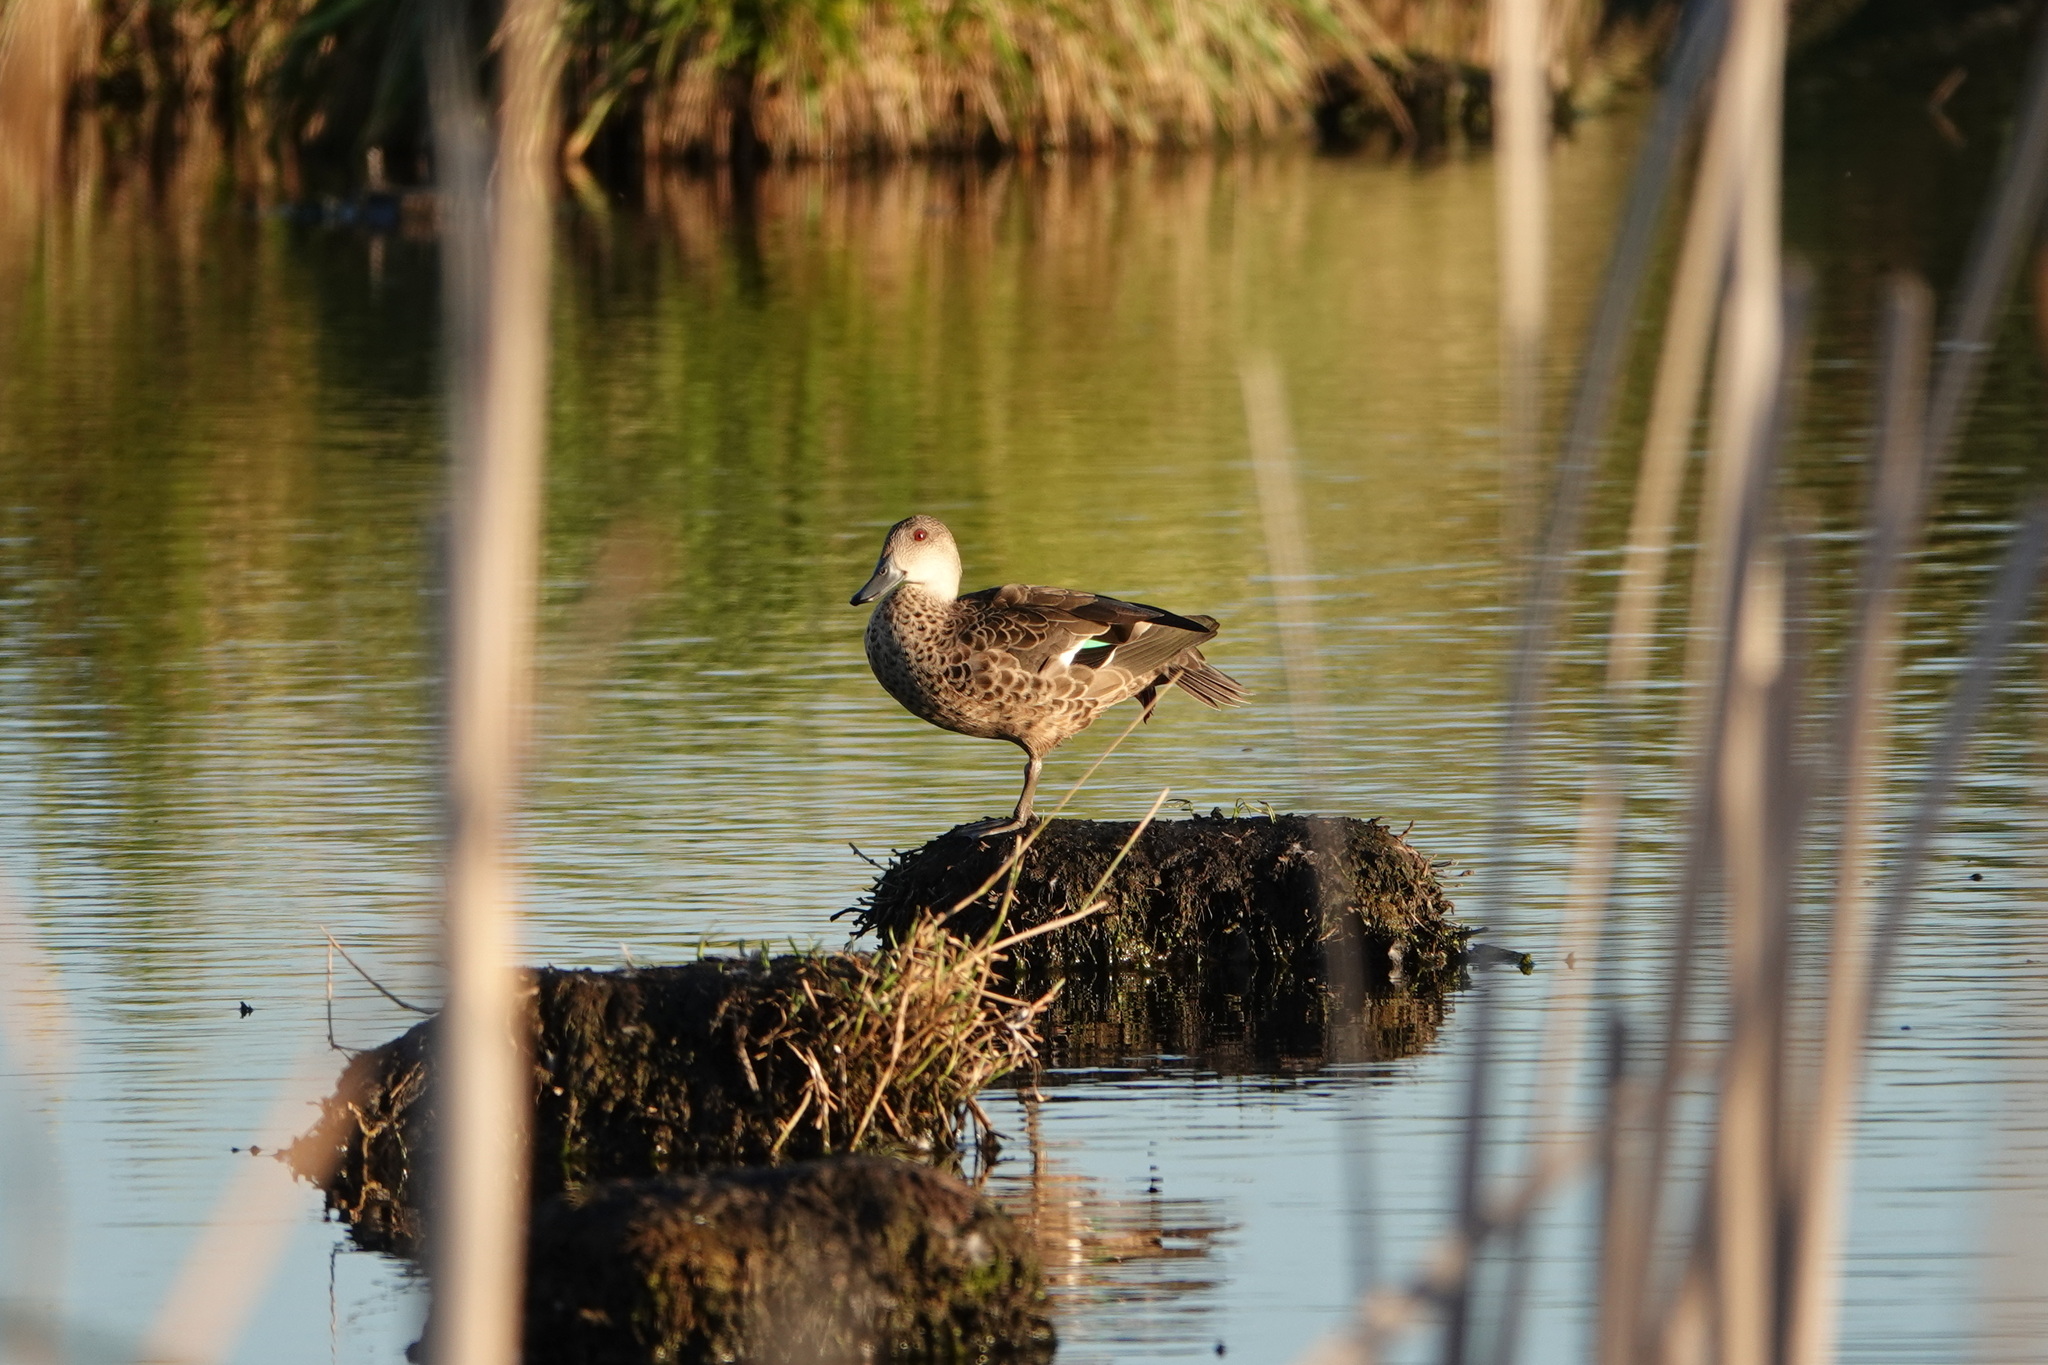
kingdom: Animalia
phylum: Chordata
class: Aves
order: Anseriformes
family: Anatidae
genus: Anas
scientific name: Anas gracilis
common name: Grey teal
